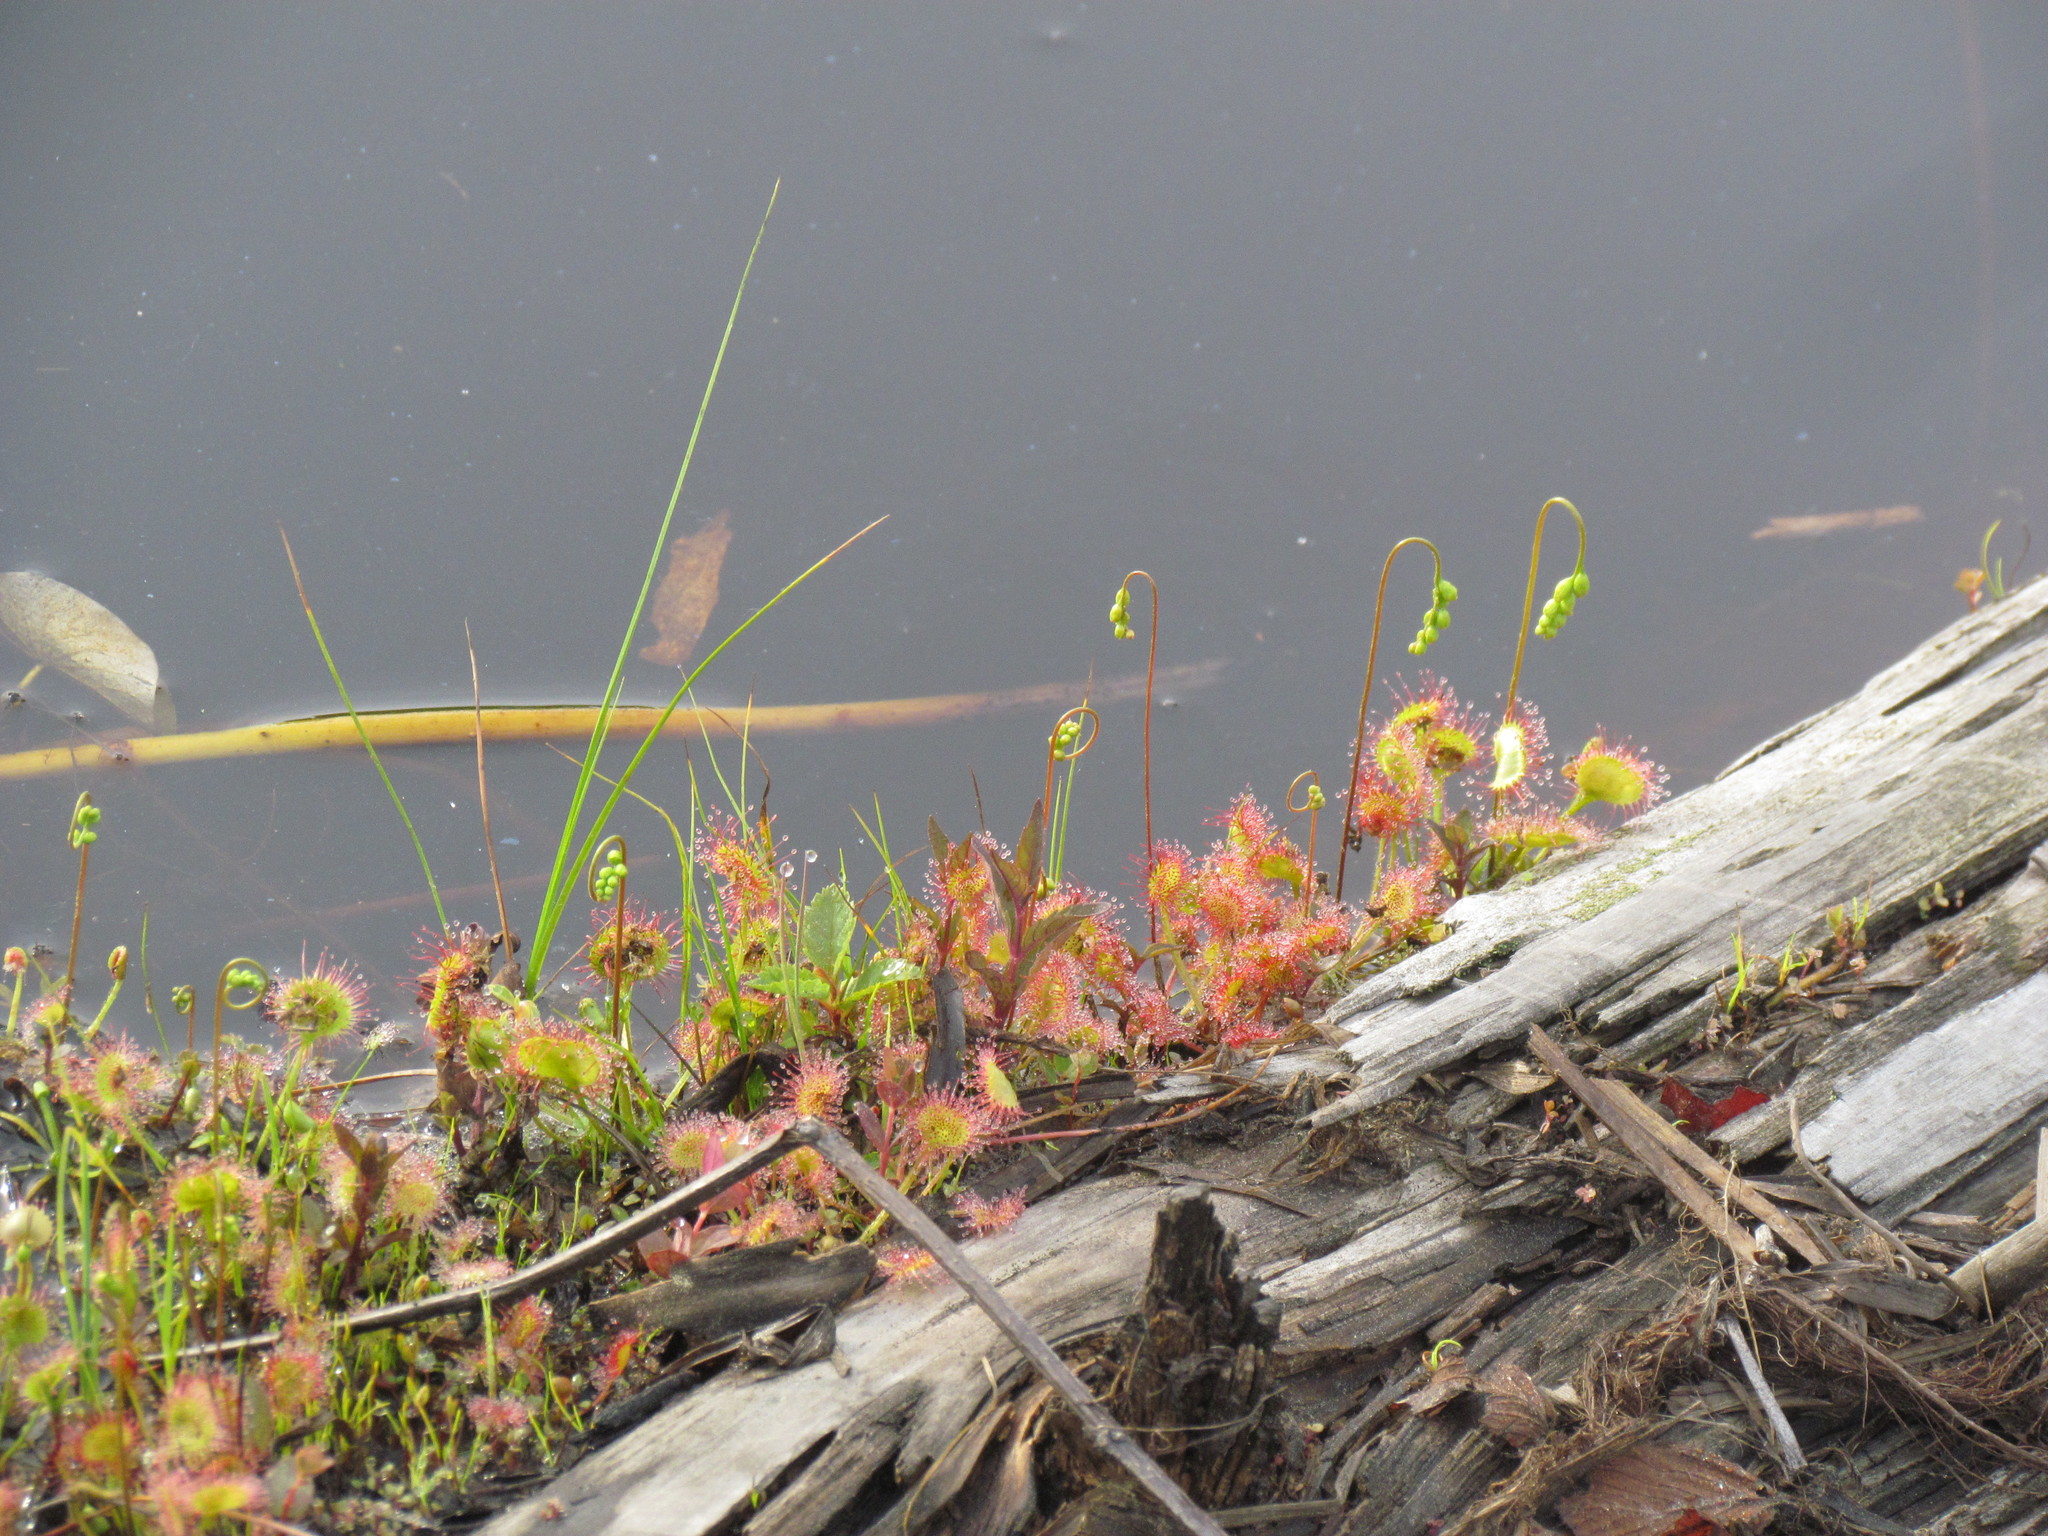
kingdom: Plantae
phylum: Tracheophyta
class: Magnoliopsida
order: Caryophyllales
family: Droseraceae
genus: Drosera
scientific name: Drosera rotundifolia
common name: Round-leaved sundew
